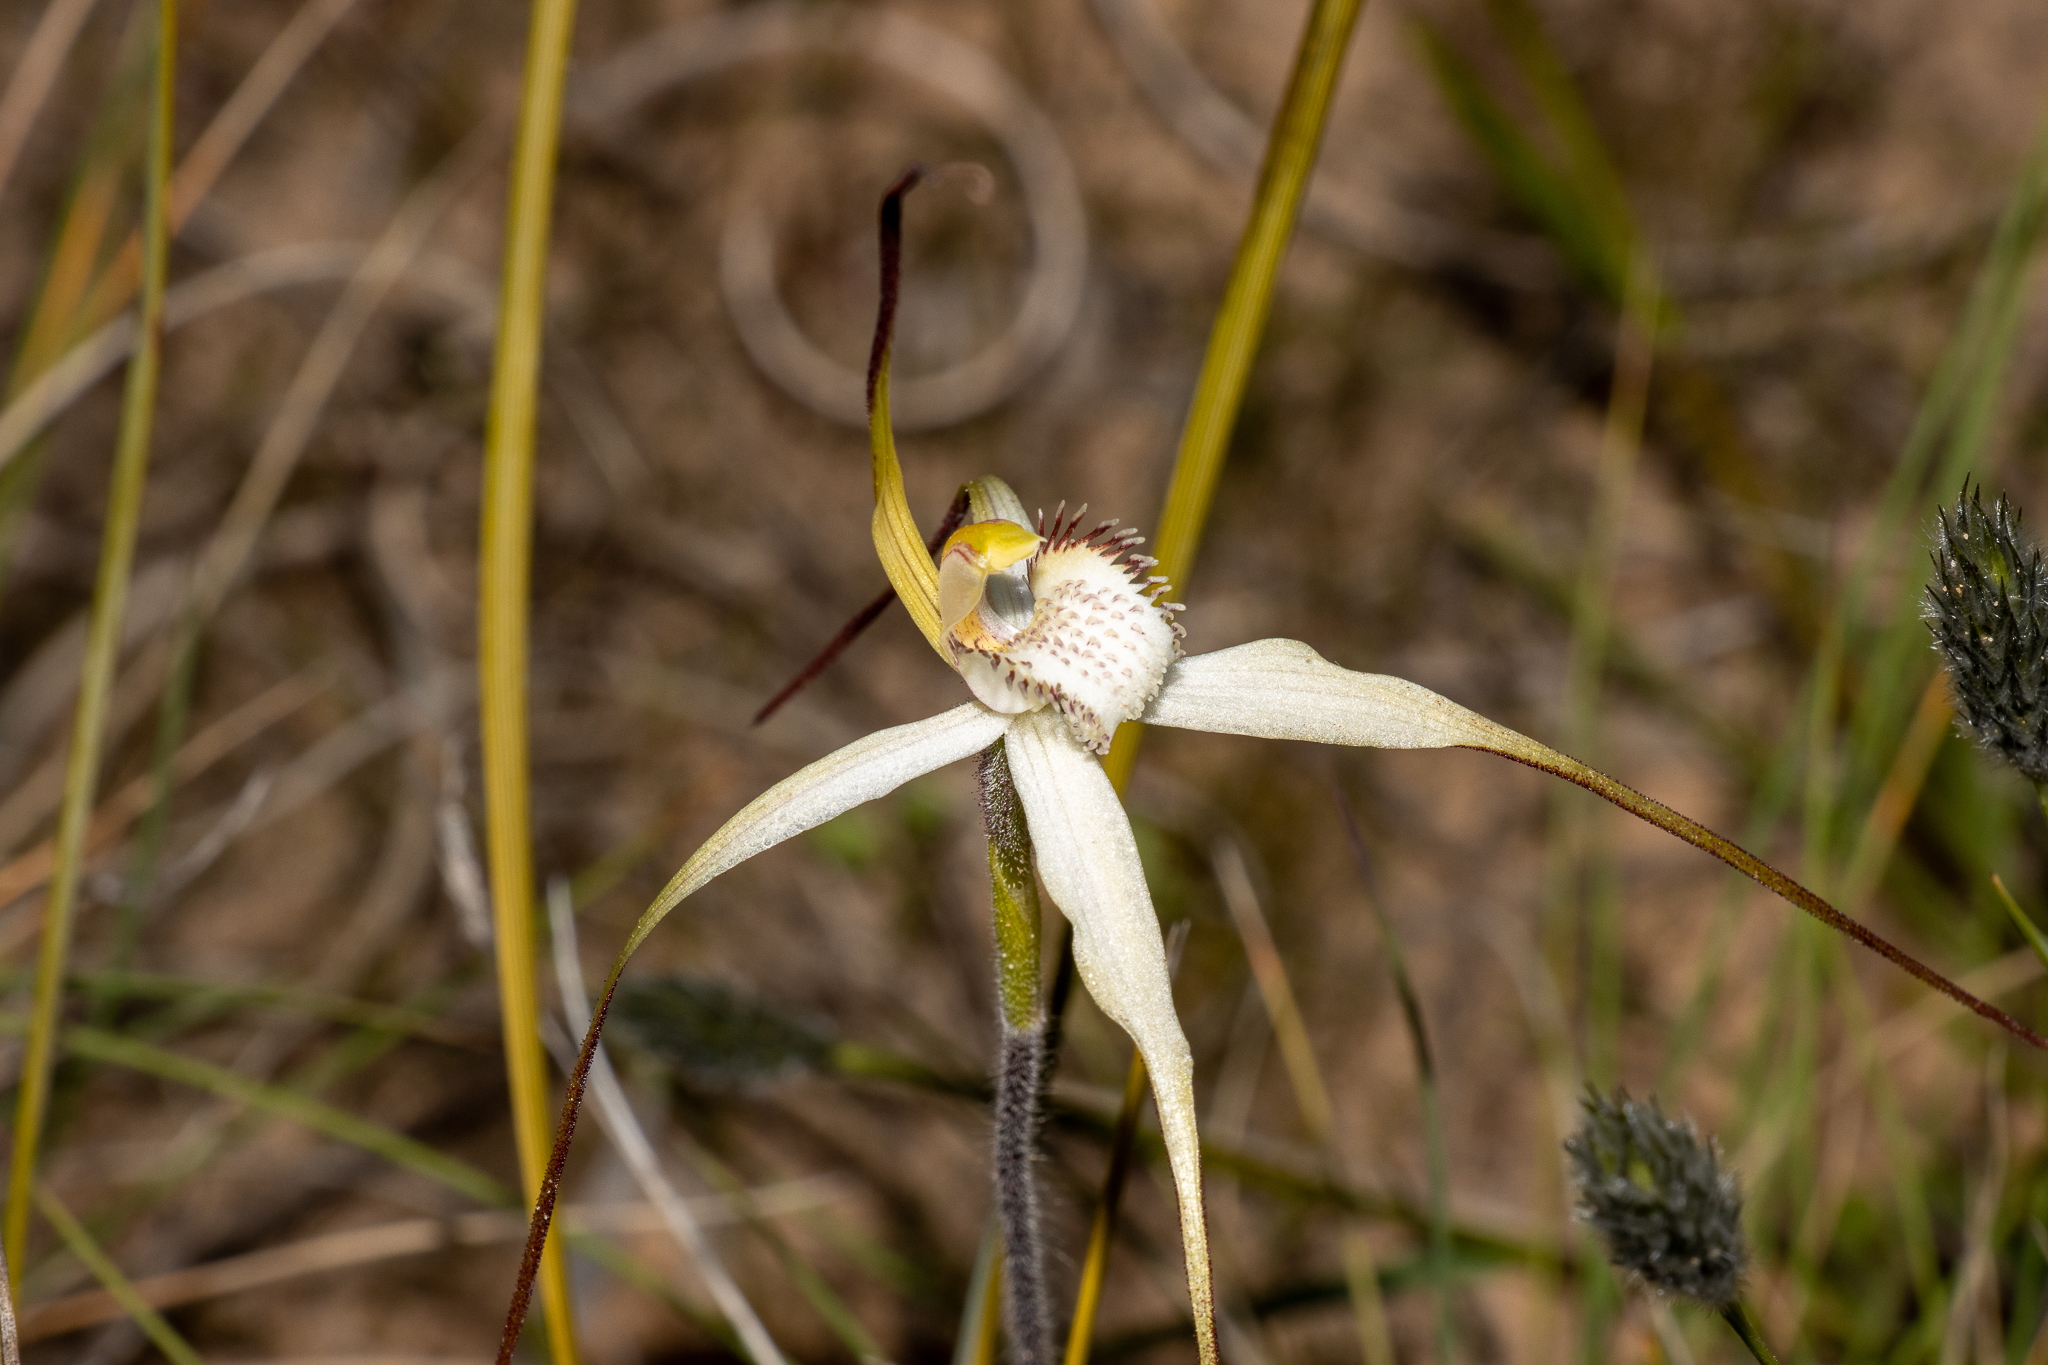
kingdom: Plantae
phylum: Tracheophyta
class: Liliopsida
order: Asparagales
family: Orchidaceae
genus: Caladenia
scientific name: Caladenia zephyra
